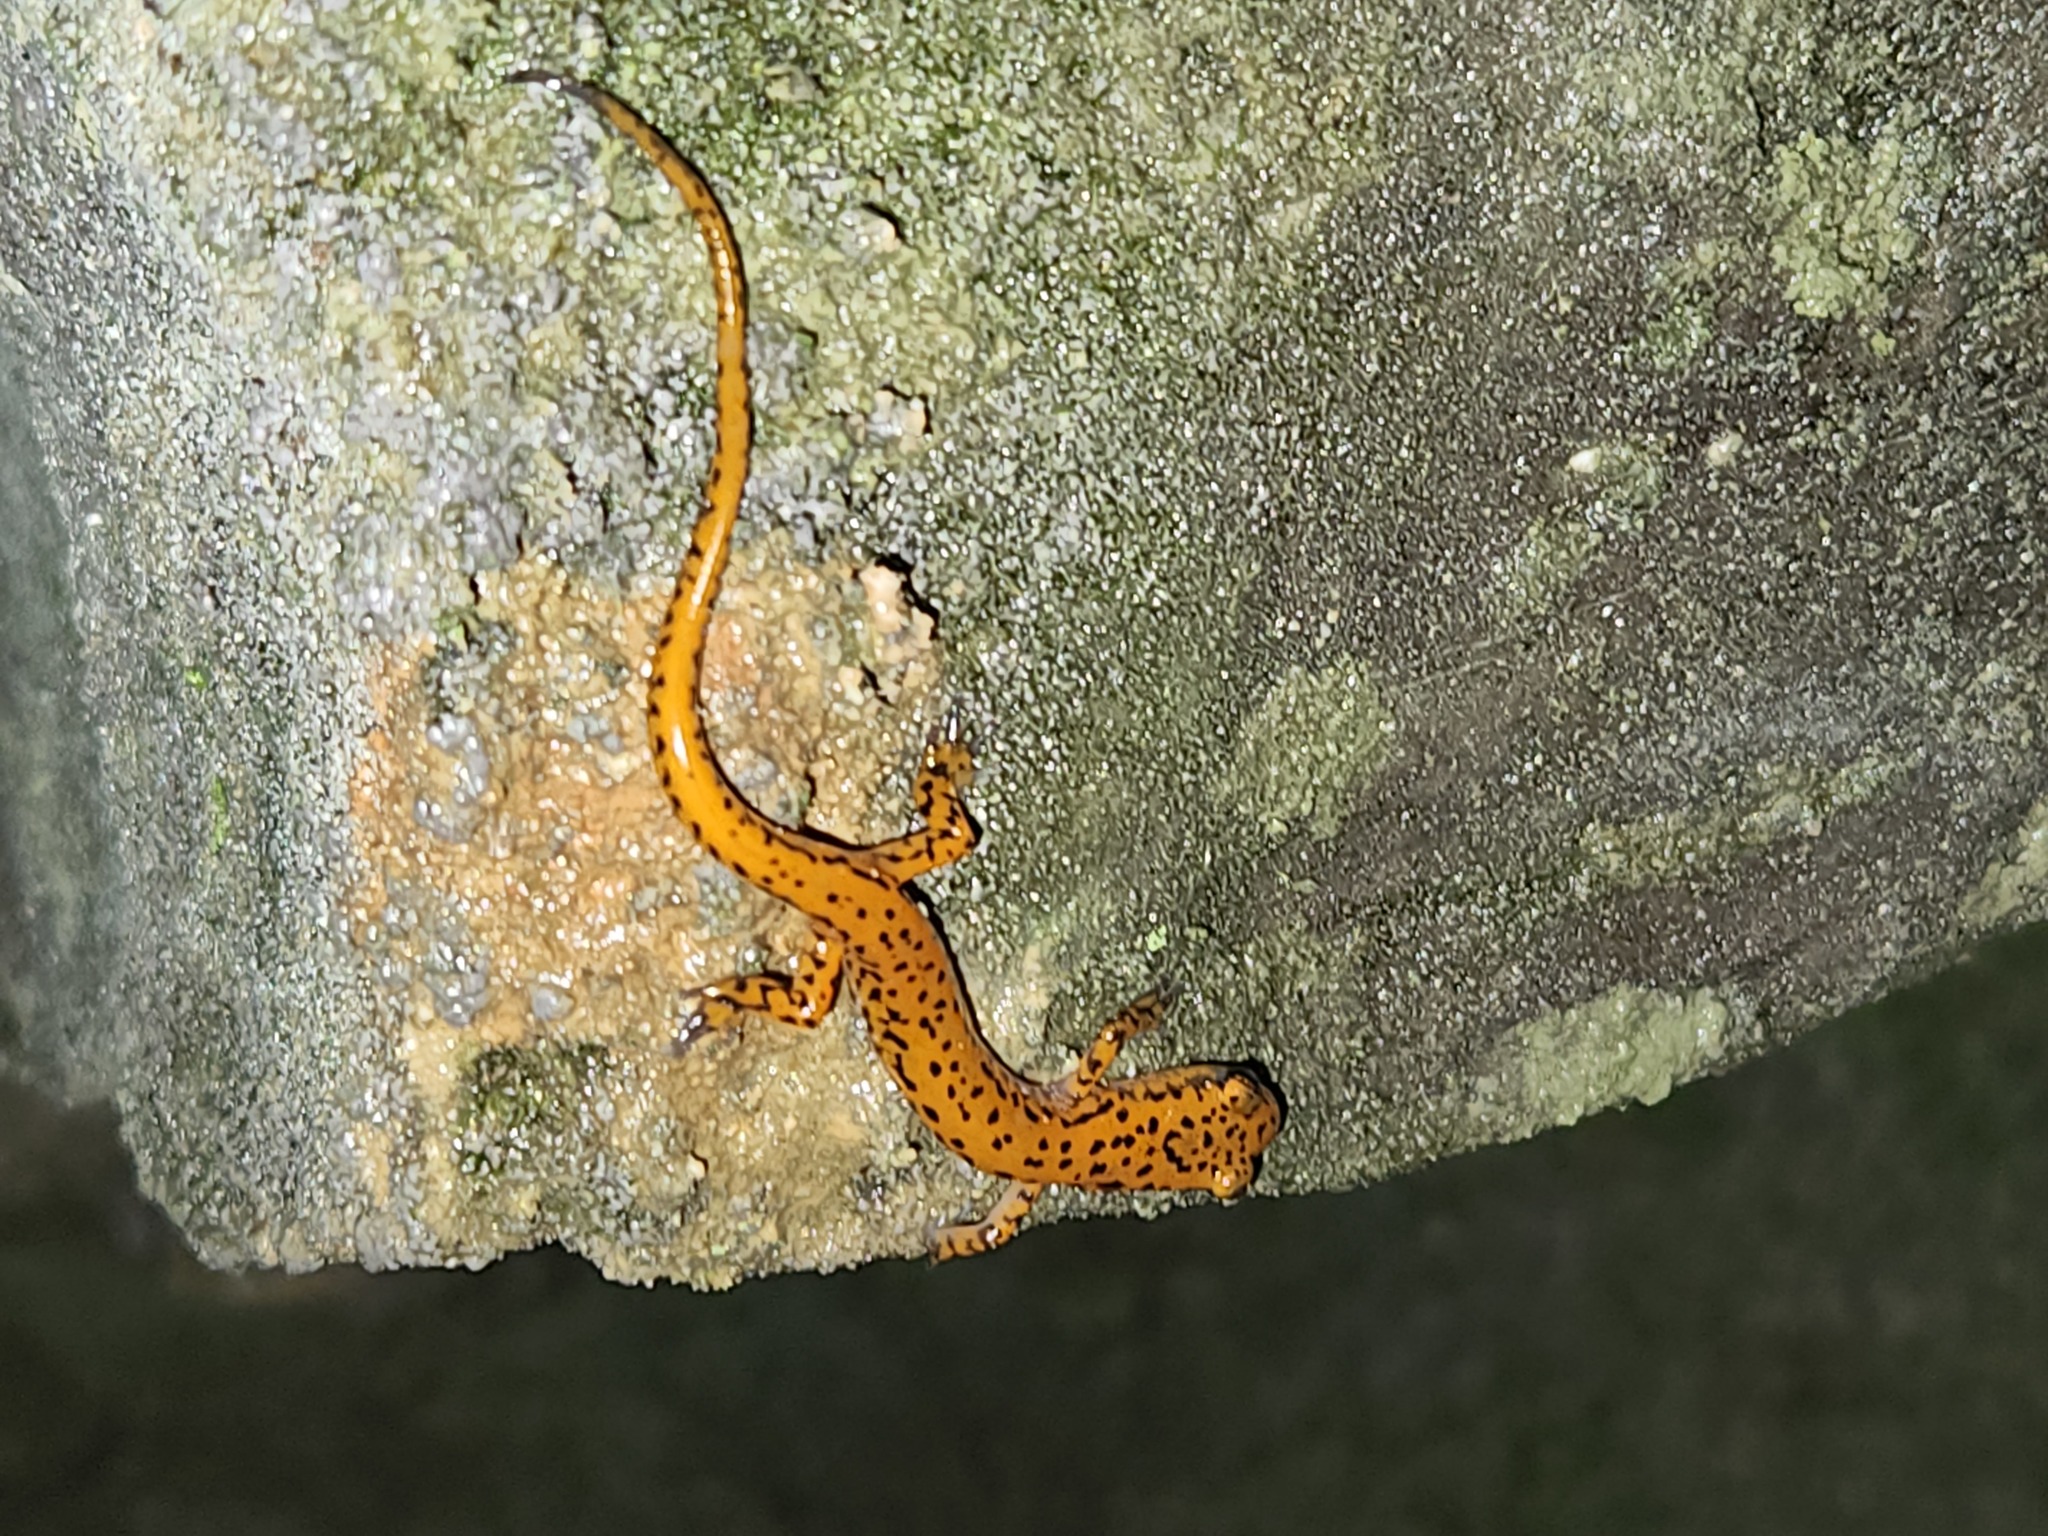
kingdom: Animalia
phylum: Chordata
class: Amphibia
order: Caudata
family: Plethodontidae
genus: Eurycea
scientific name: Eurycea lucifuga
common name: Cave salamander
